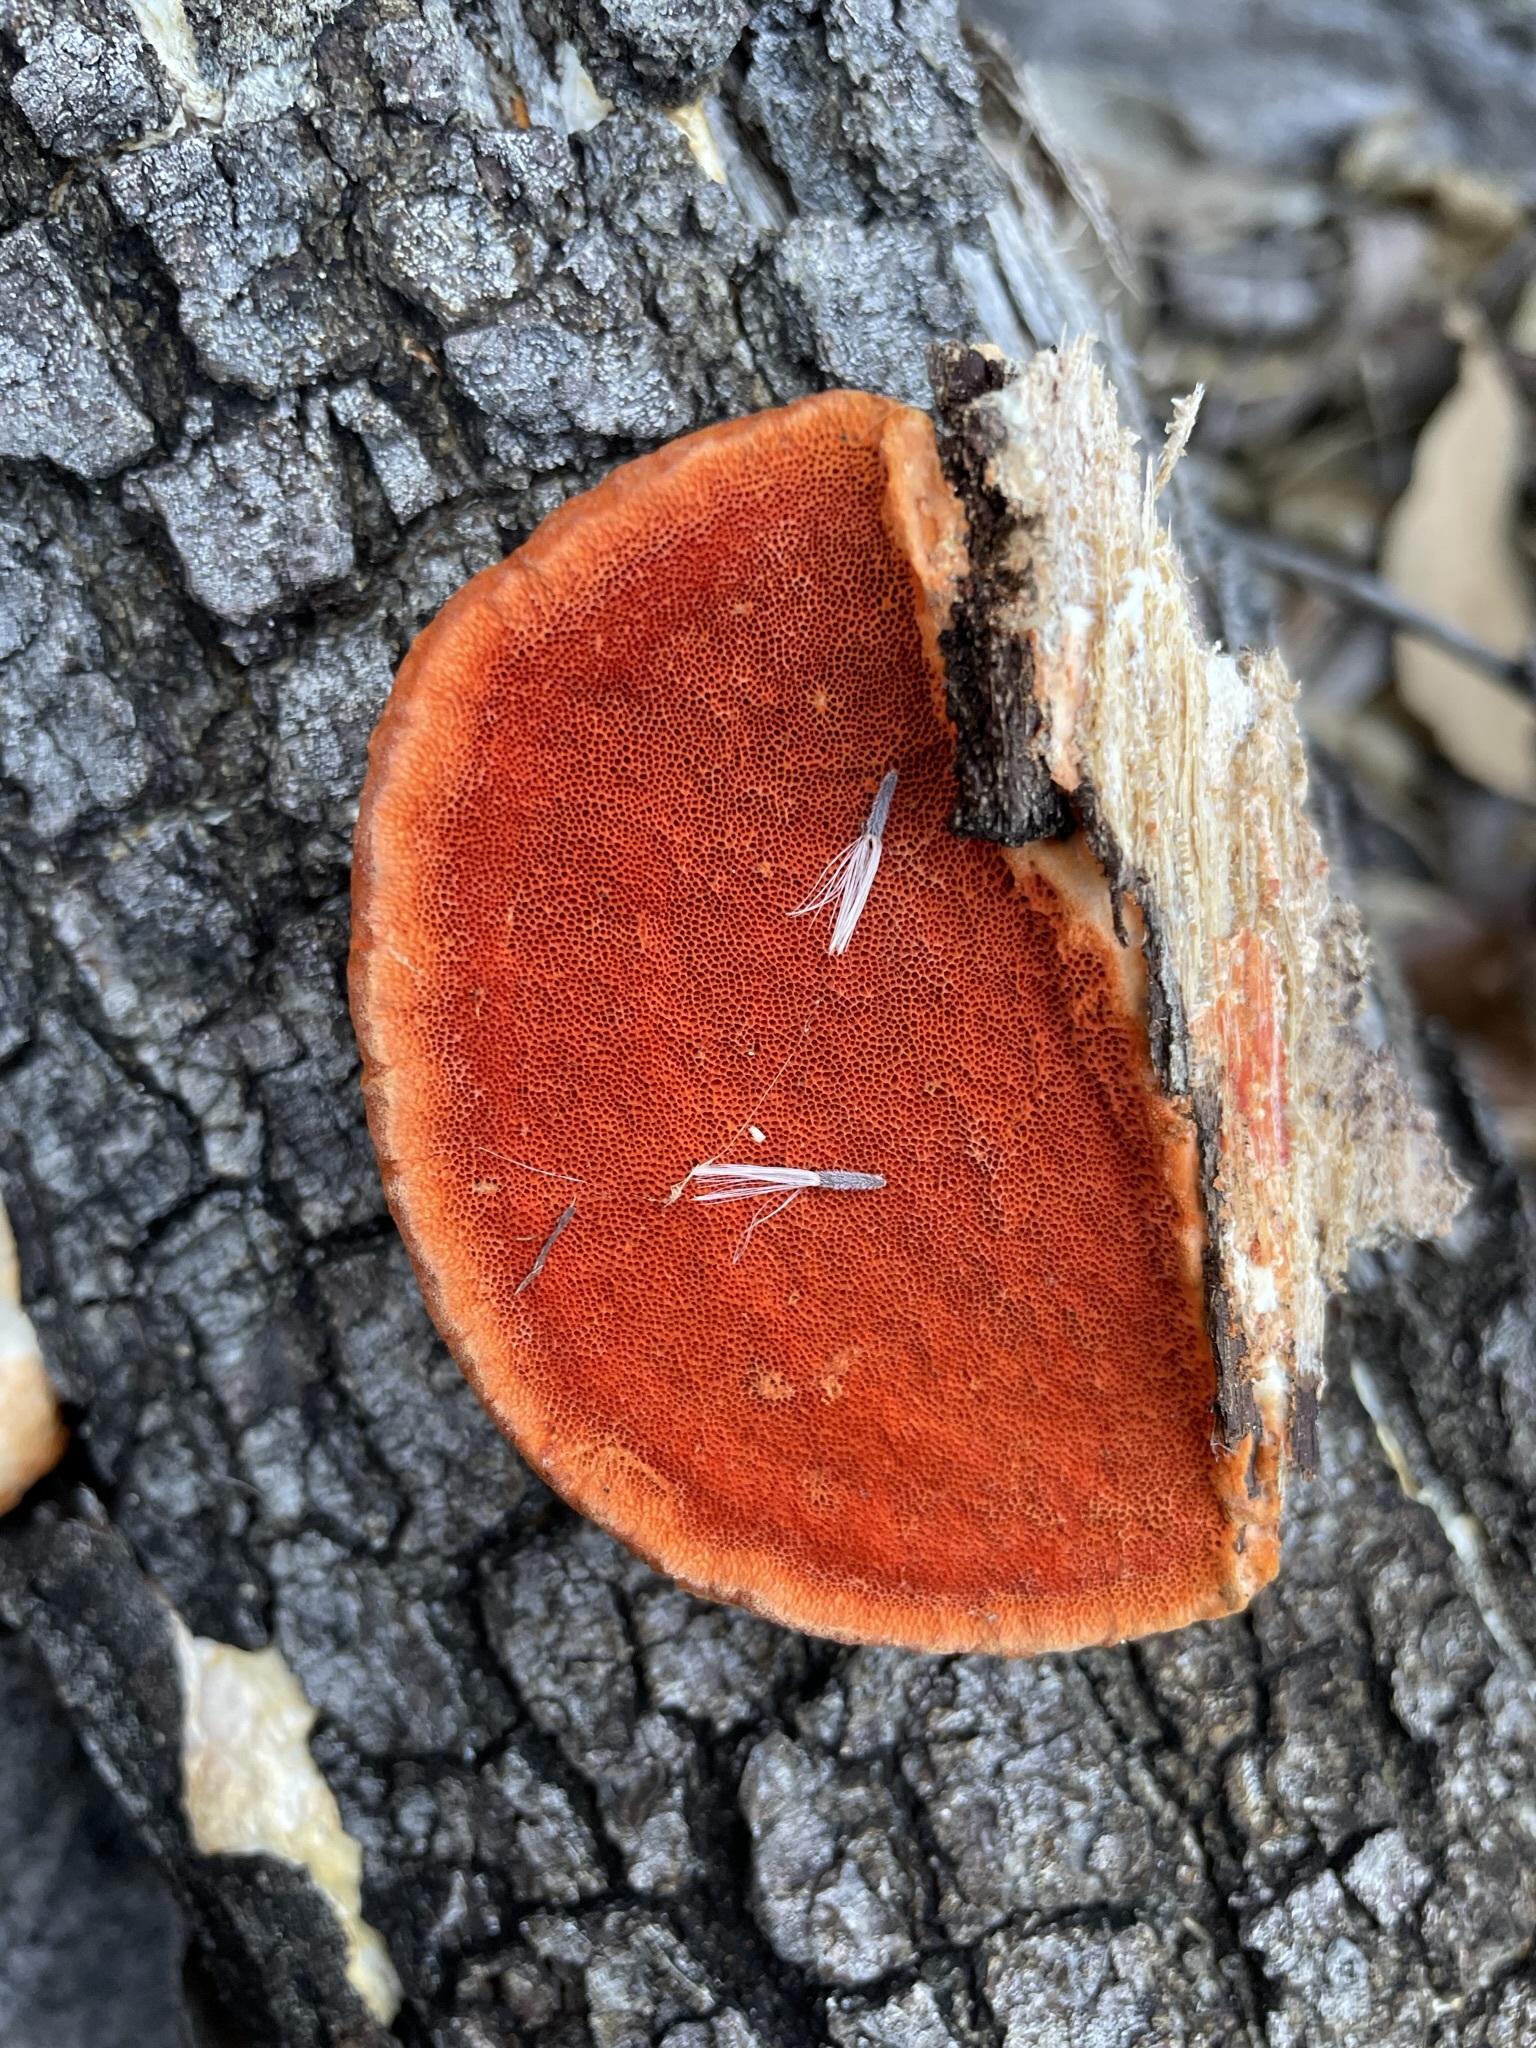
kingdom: Fungi
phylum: Basidiomycota
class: Agaricomycetes
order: Polyporales
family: Polyporaceae
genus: Trametes
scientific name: Trametes cinnabarina
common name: Northern cinnabar polypore
